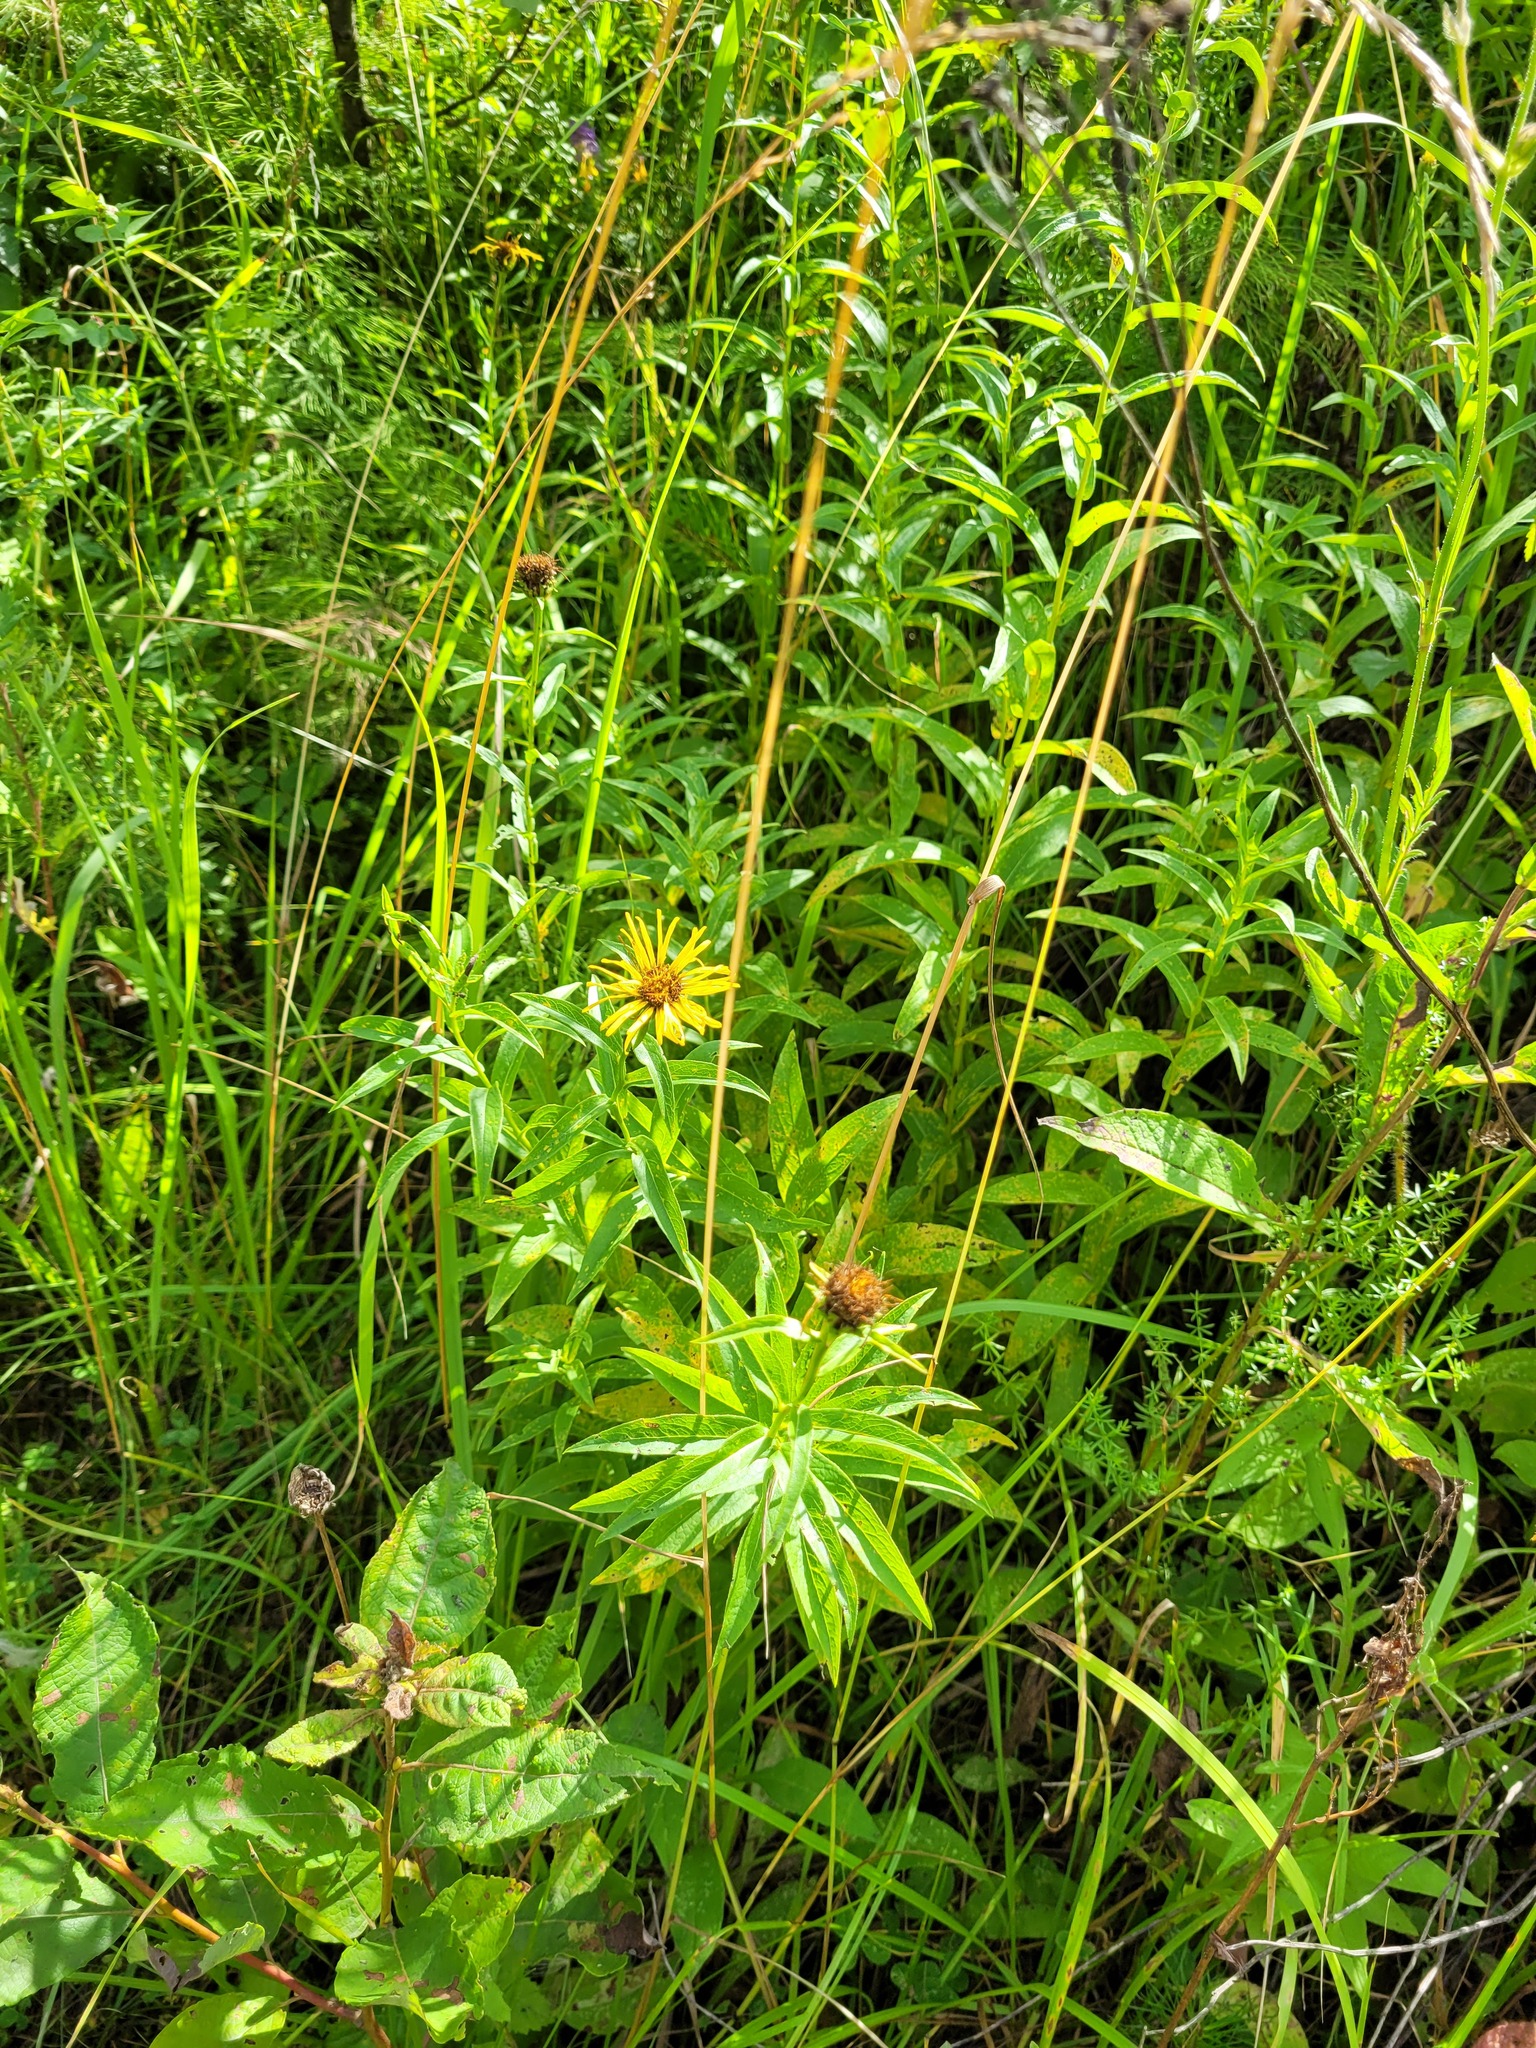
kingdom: Plantae
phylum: Tracheophyta
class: Magnoliopsida
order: Asterales
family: Asteraceae
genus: Pentanema
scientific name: Pentanema salicinum
